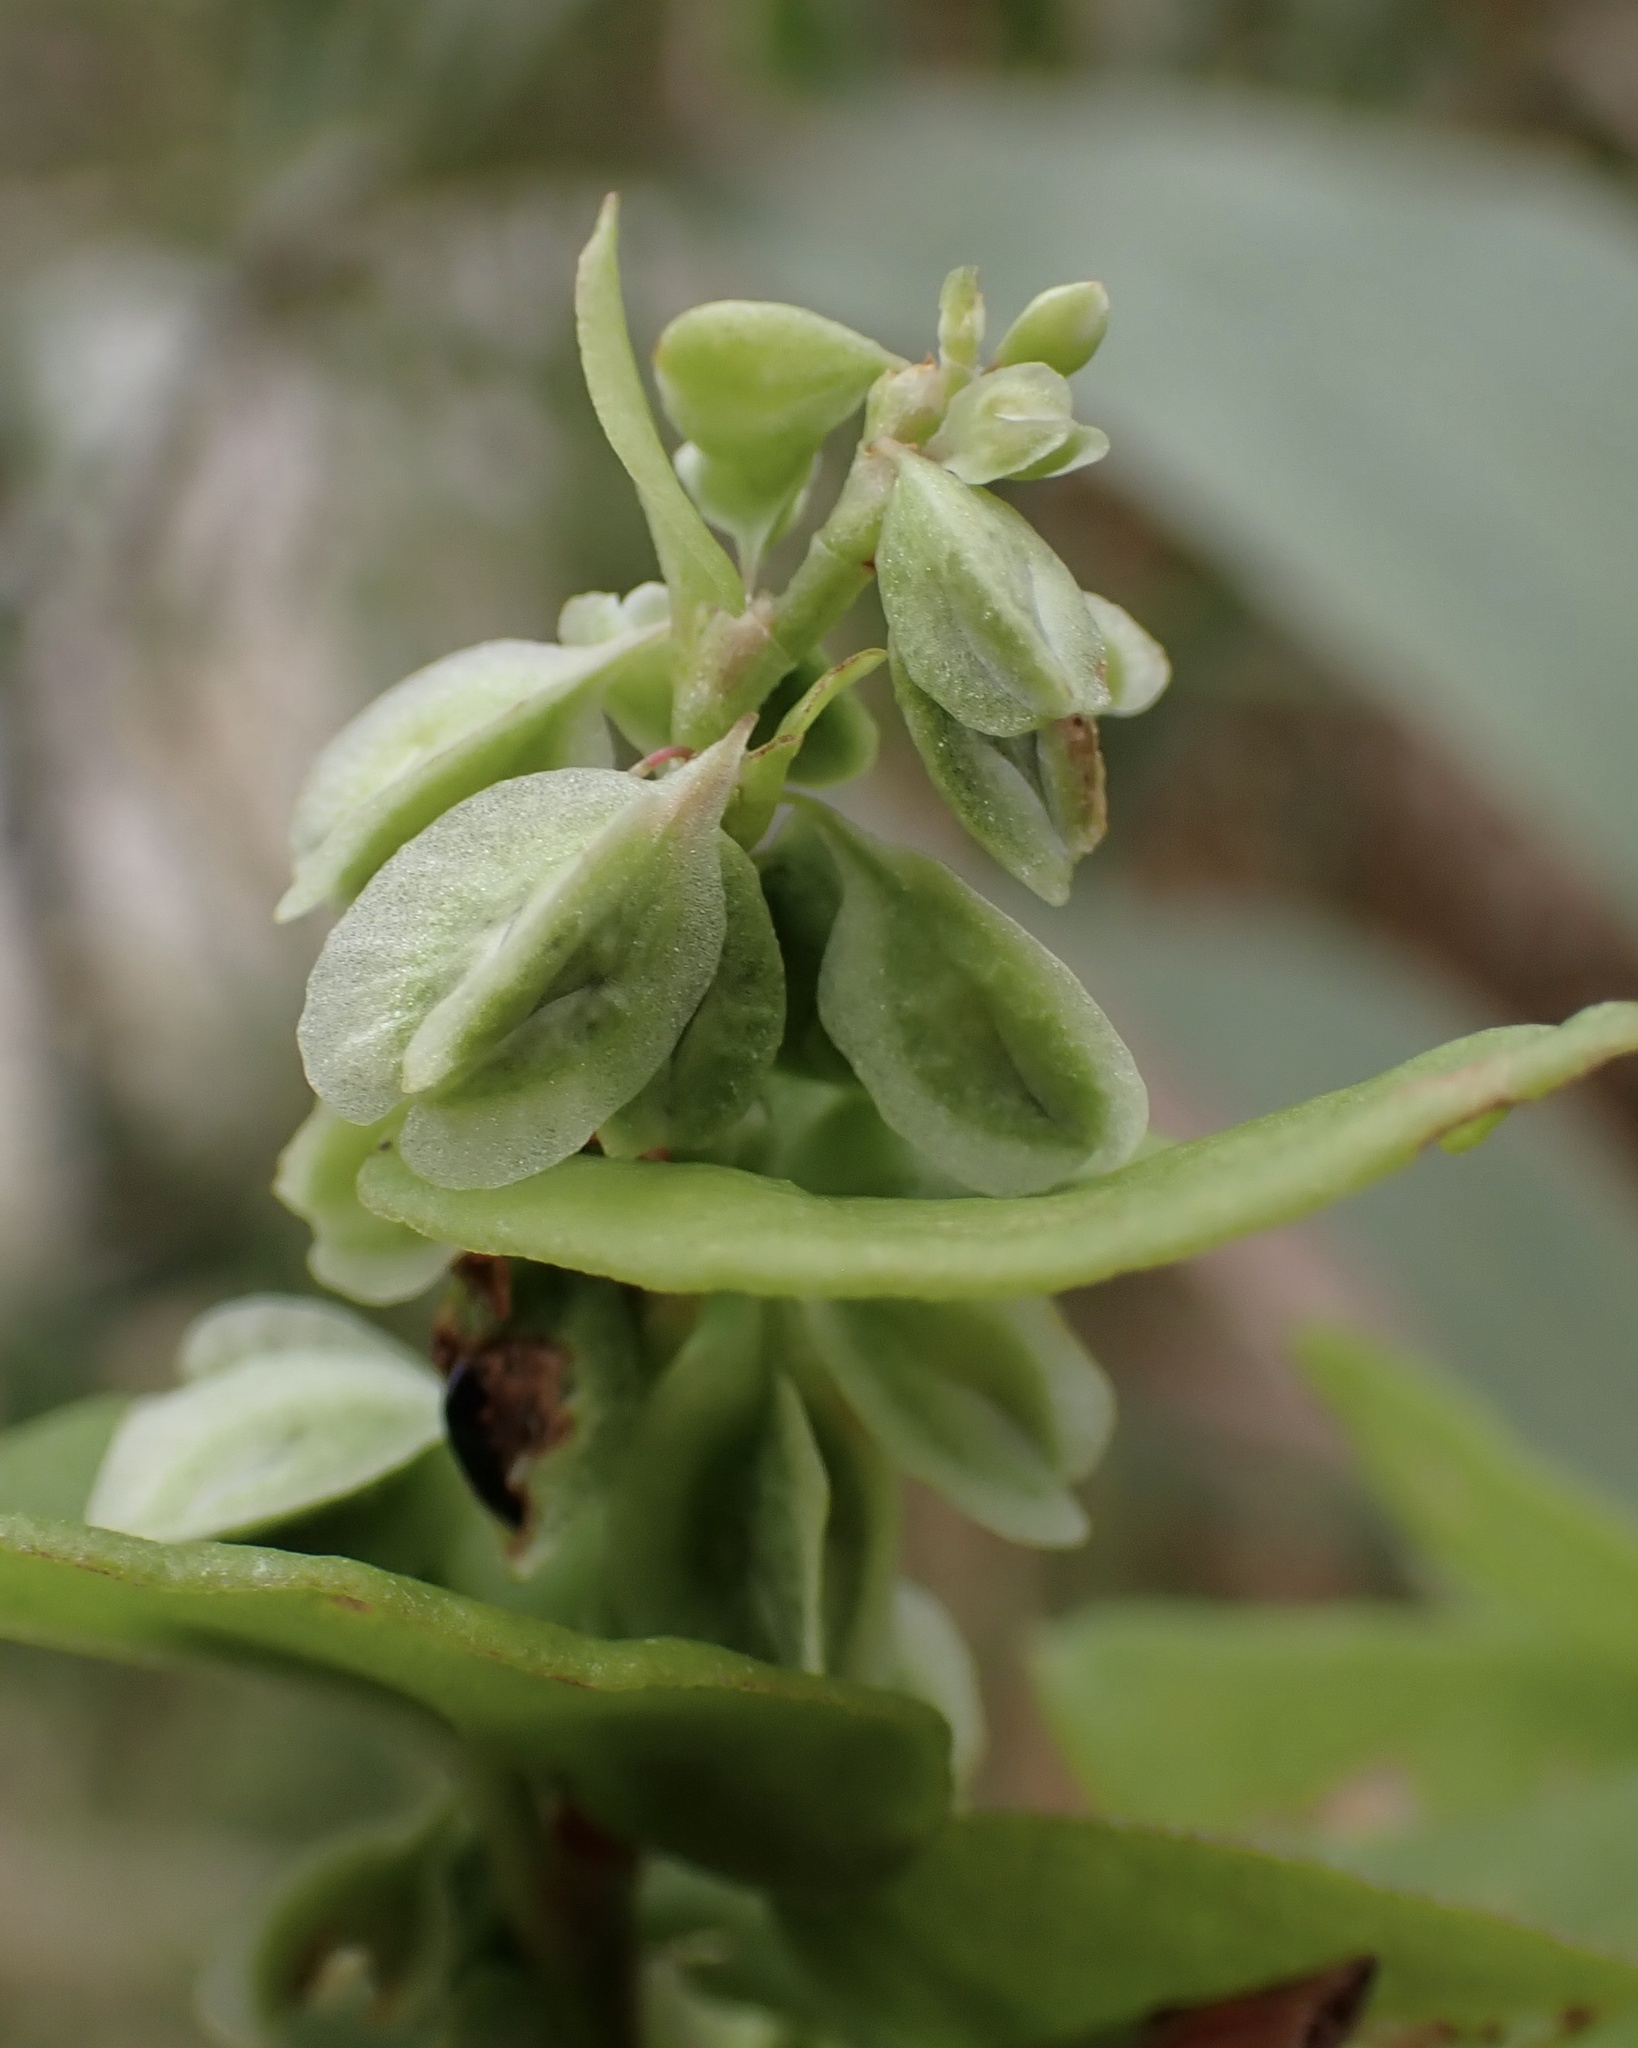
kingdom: Plantae
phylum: Tracheophyta
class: Magnoliopsida
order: Caryophyllales
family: Polygonaceae
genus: Fallopia
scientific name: Fallopia scandens
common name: Climbing false buckwheat
